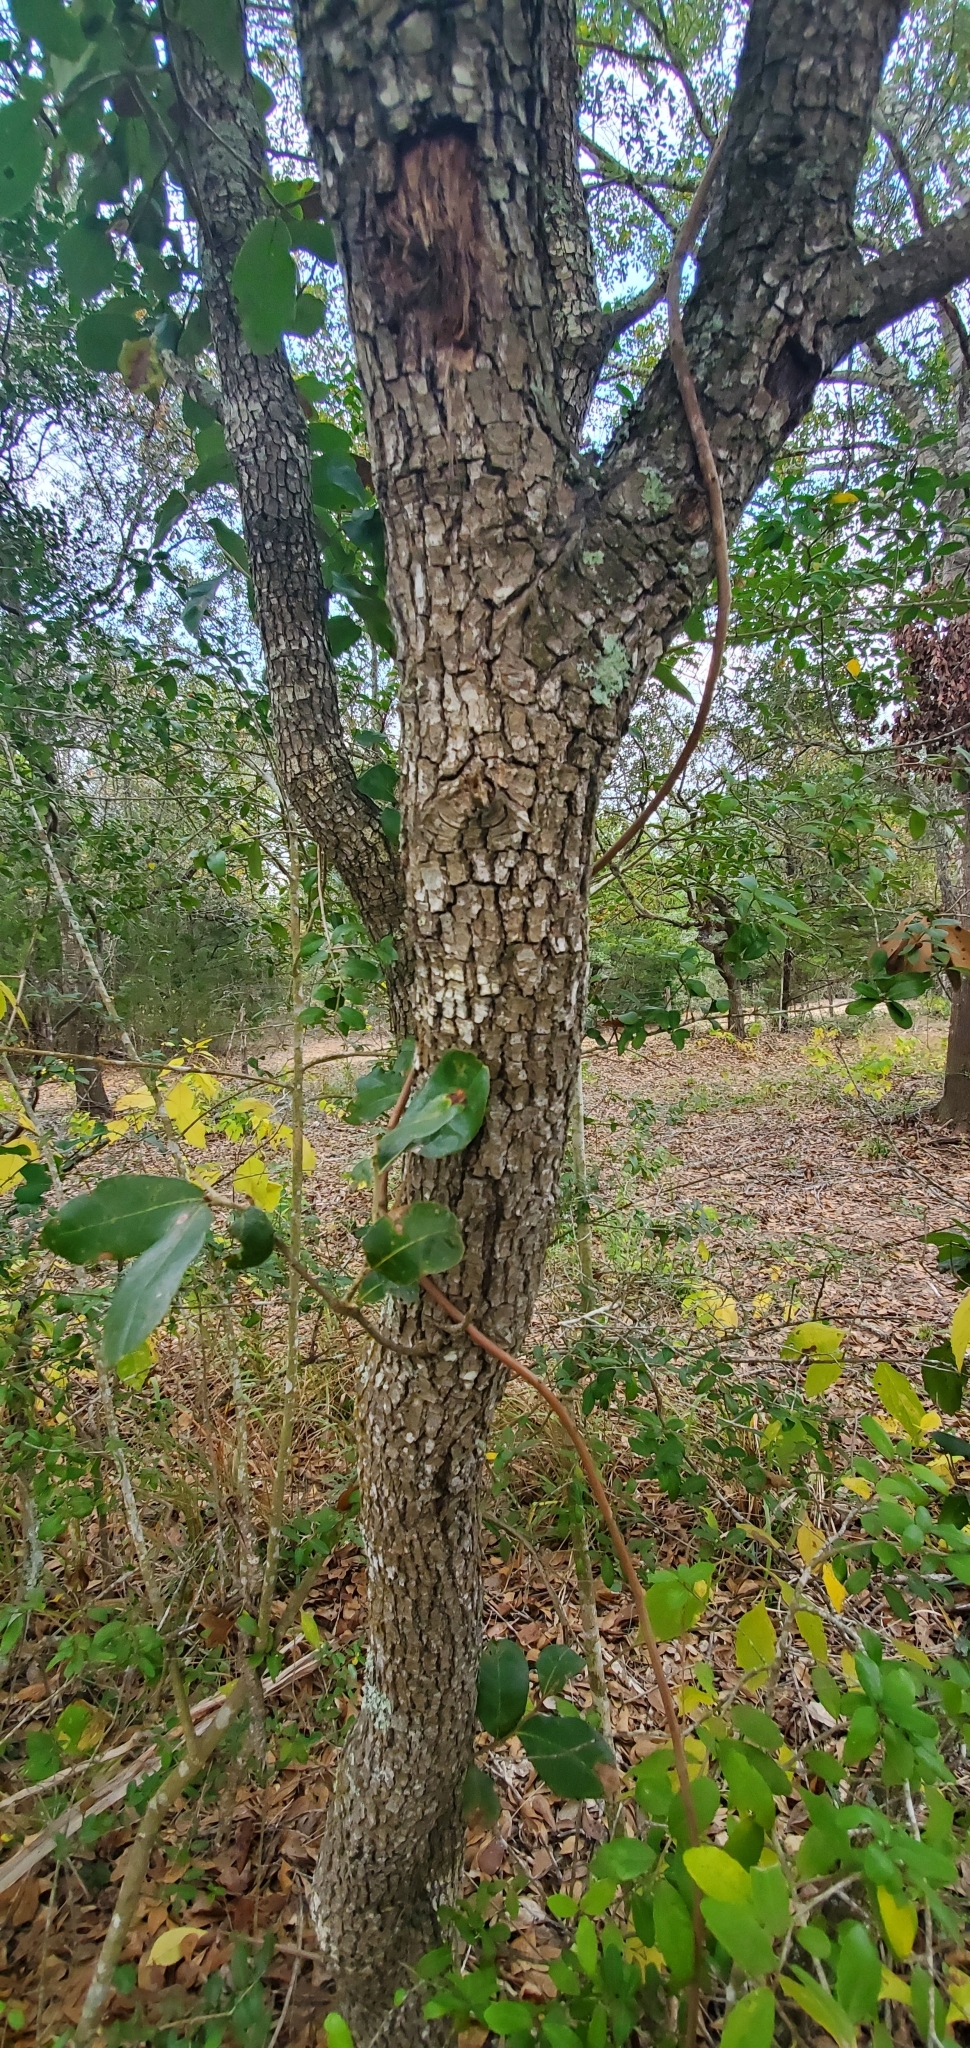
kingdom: Plantae
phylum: Tracheophyta
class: Magnoliopsida
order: Fagales
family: Fagaceae
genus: Quercus
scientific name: Quercus virginiana
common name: Southern live oak
